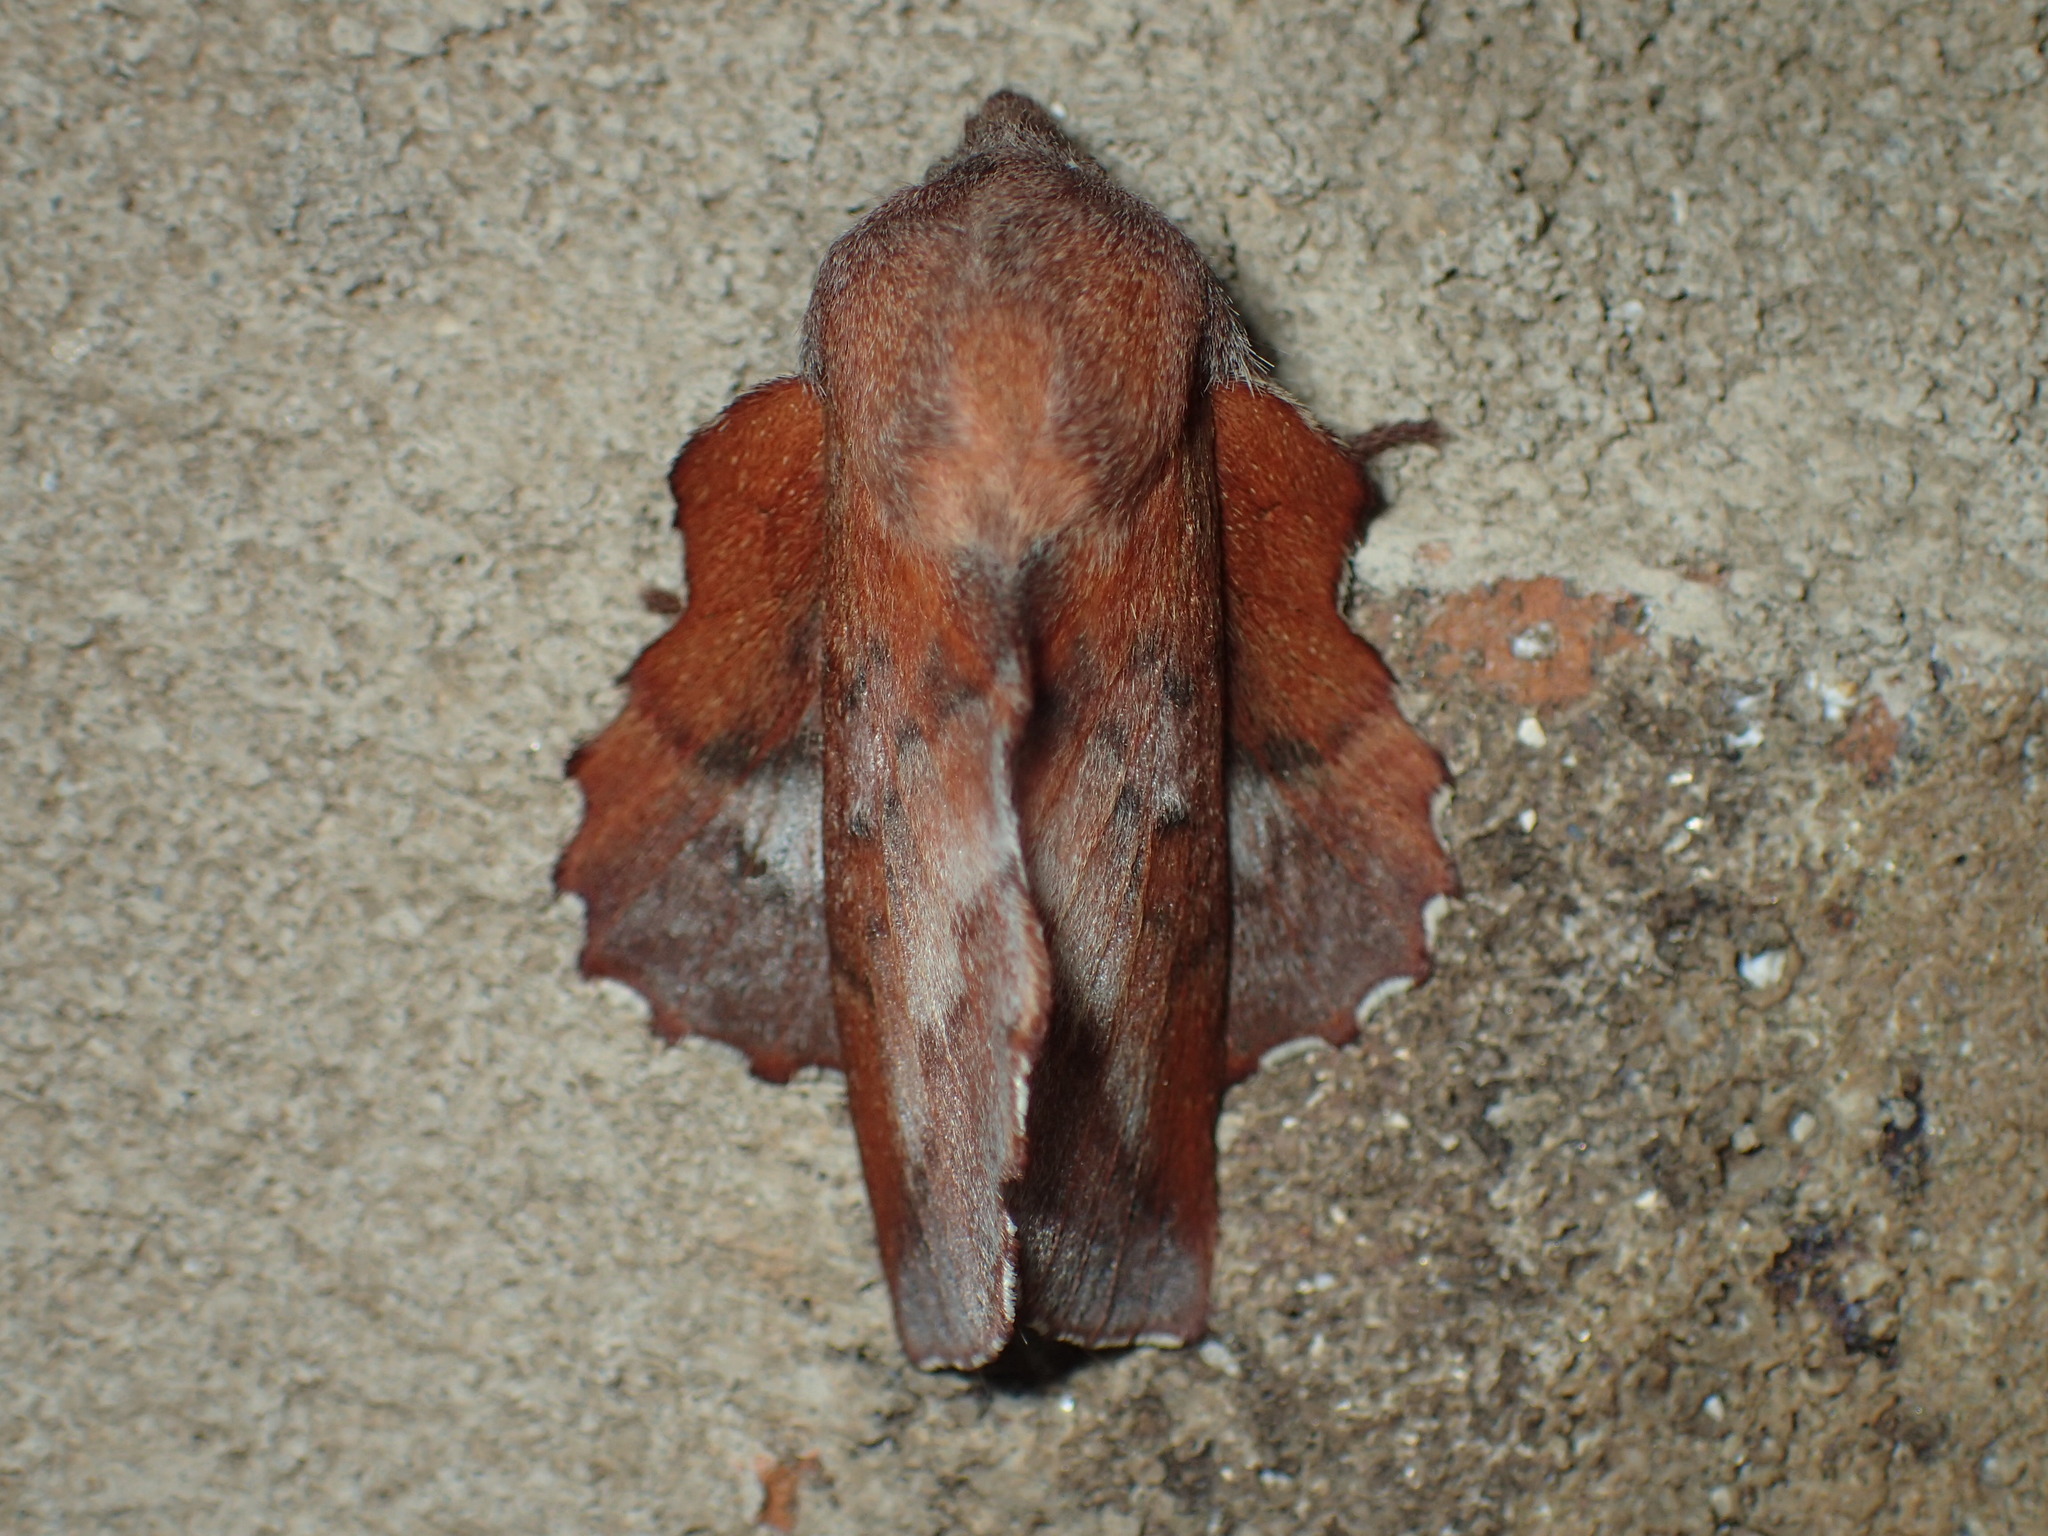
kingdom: Animalia
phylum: Arthropoda
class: Insecta
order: Lepidoptera
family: Lasiocampidae
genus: Phyllodesma
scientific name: Phyllodesma americana
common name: American lappet moth
